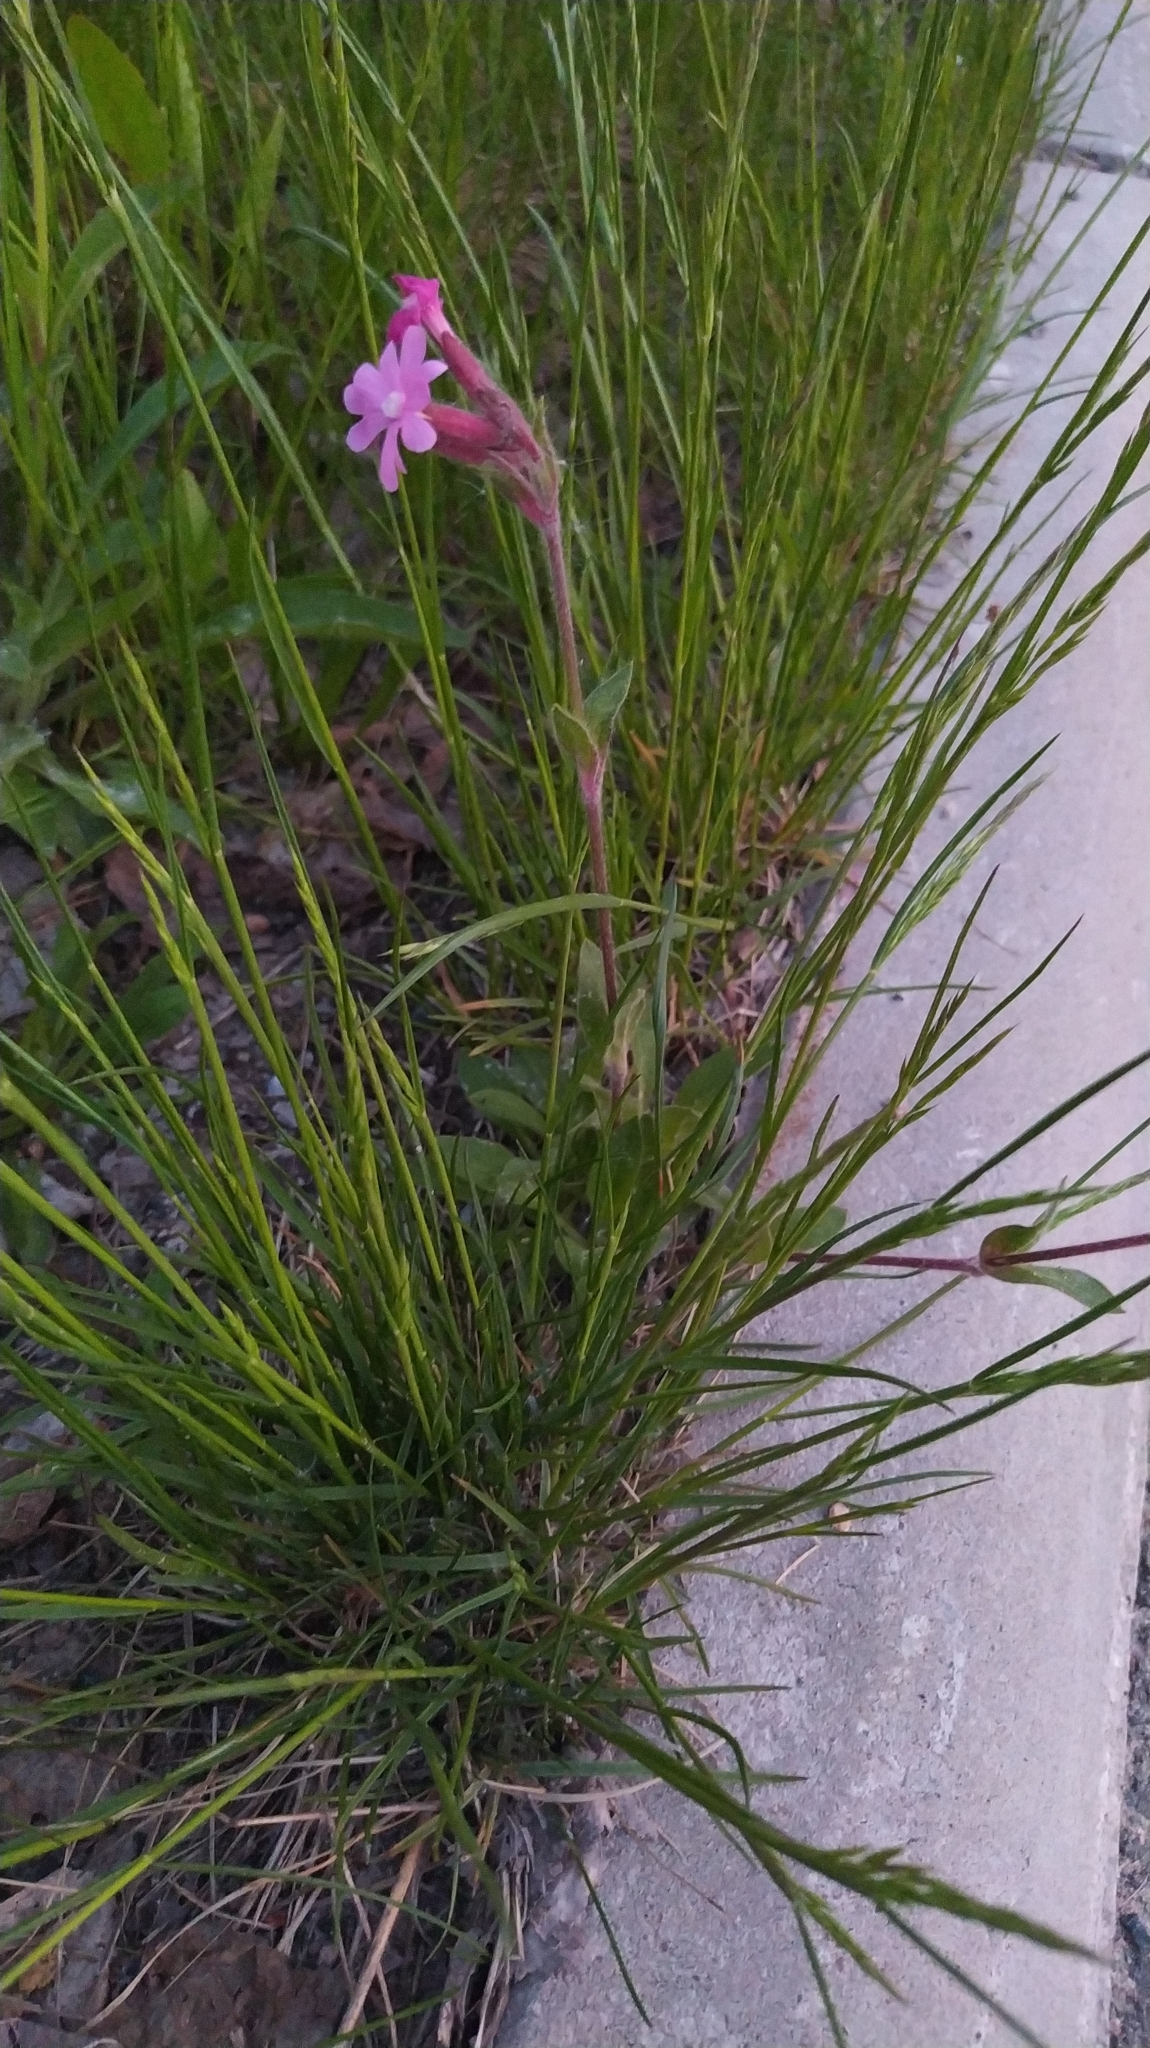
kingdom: Plantae
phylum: Tracheophyta
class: Magnoliopsida
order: Caryophyllales
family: Caryophyllaceae
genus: Silene
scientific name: Silene dioica
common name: Red campion
